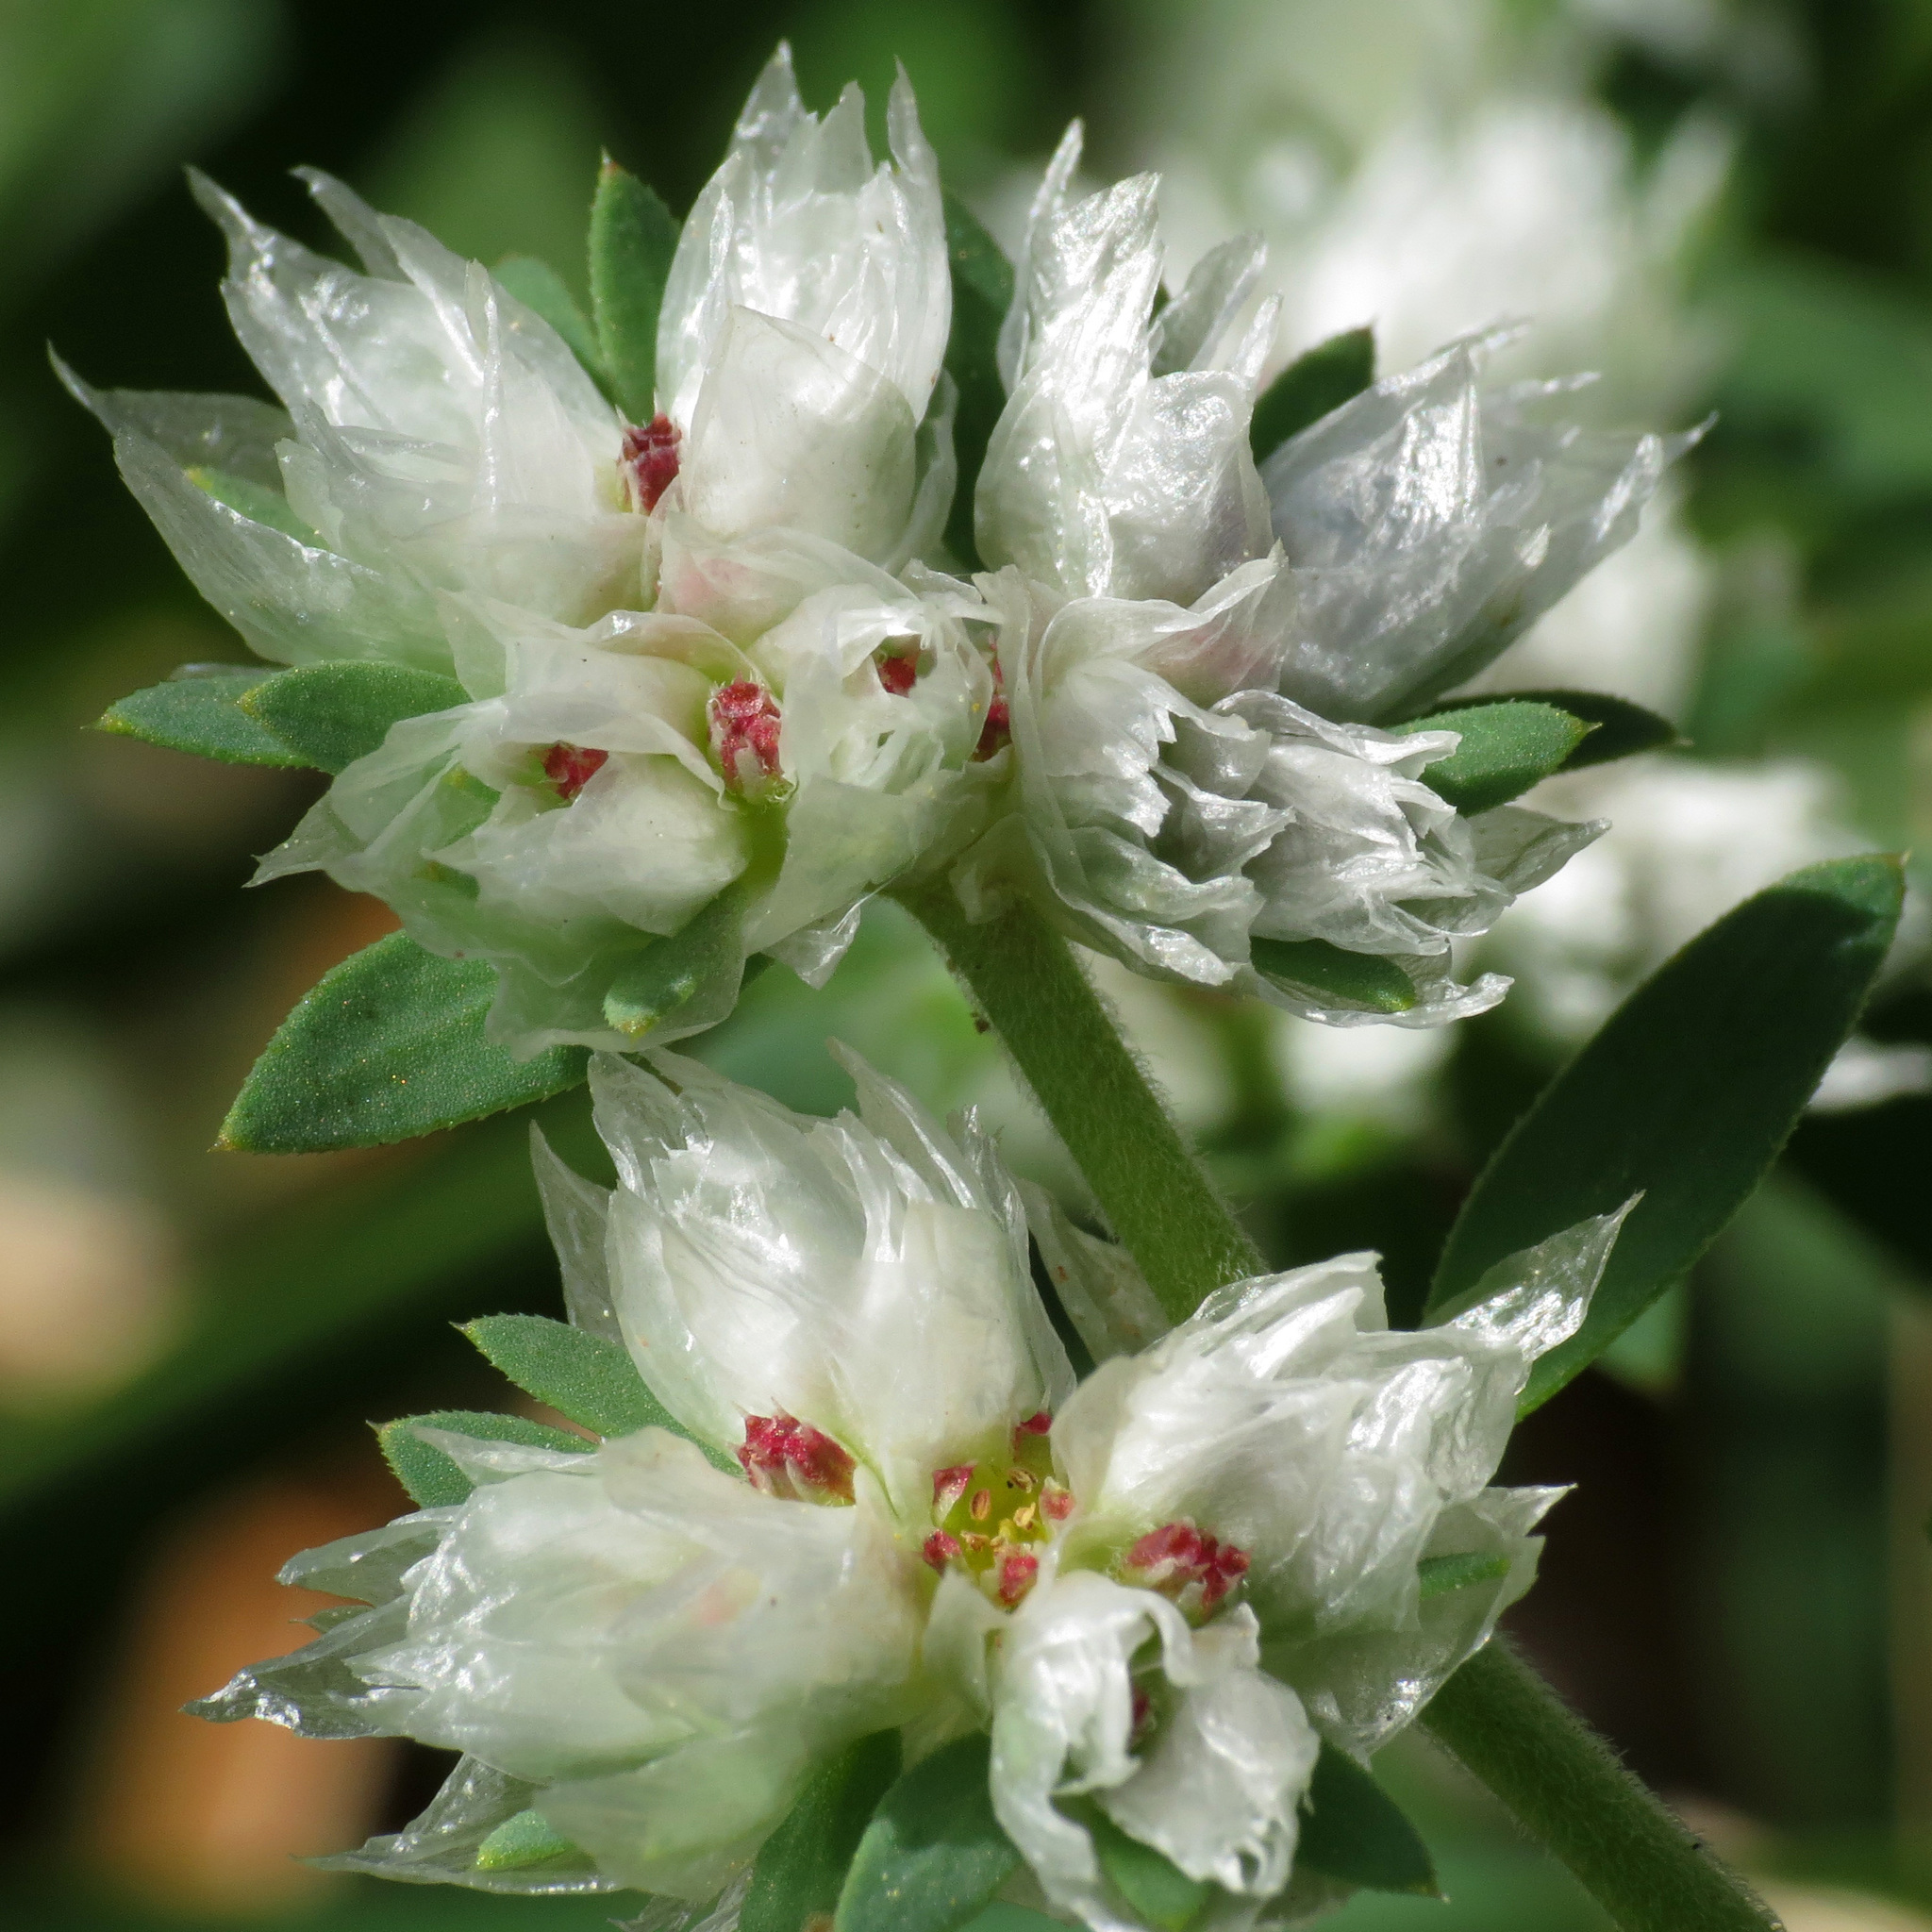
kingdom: Plantae
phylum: Tracheophyta
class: Magnoliopsida
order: Caryophyllales
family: Caryophyllaceae
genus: Paronychia
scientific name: Paronychia argentea
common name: Silver nailroot
